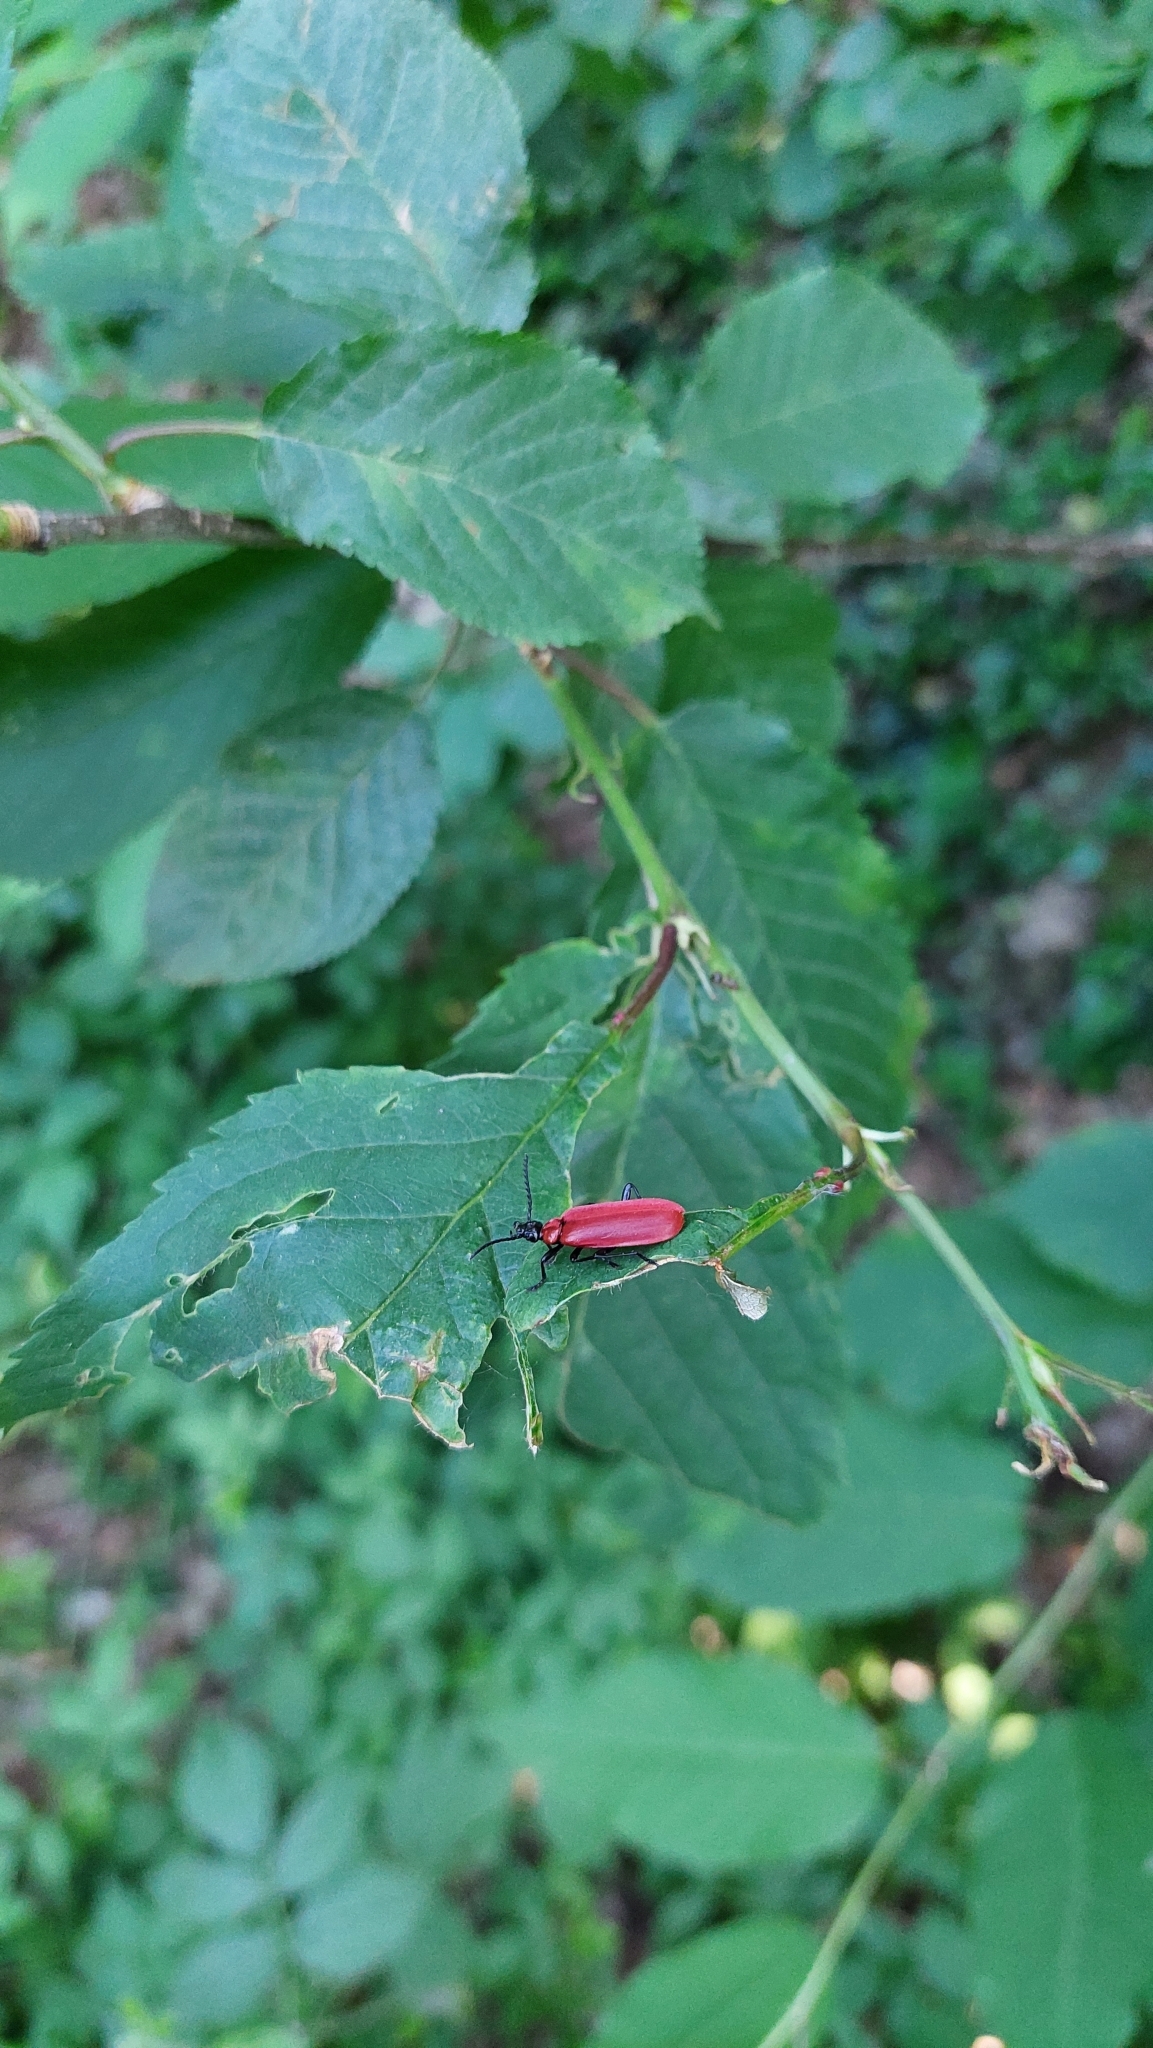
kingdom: Animalia
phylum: Arthropoda
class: Insecta
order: Coleoptera
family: Pyrochroidae
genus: Pyrochroa
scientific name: Pyrochroa coccinea
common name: Black-headed cardinal beetle
